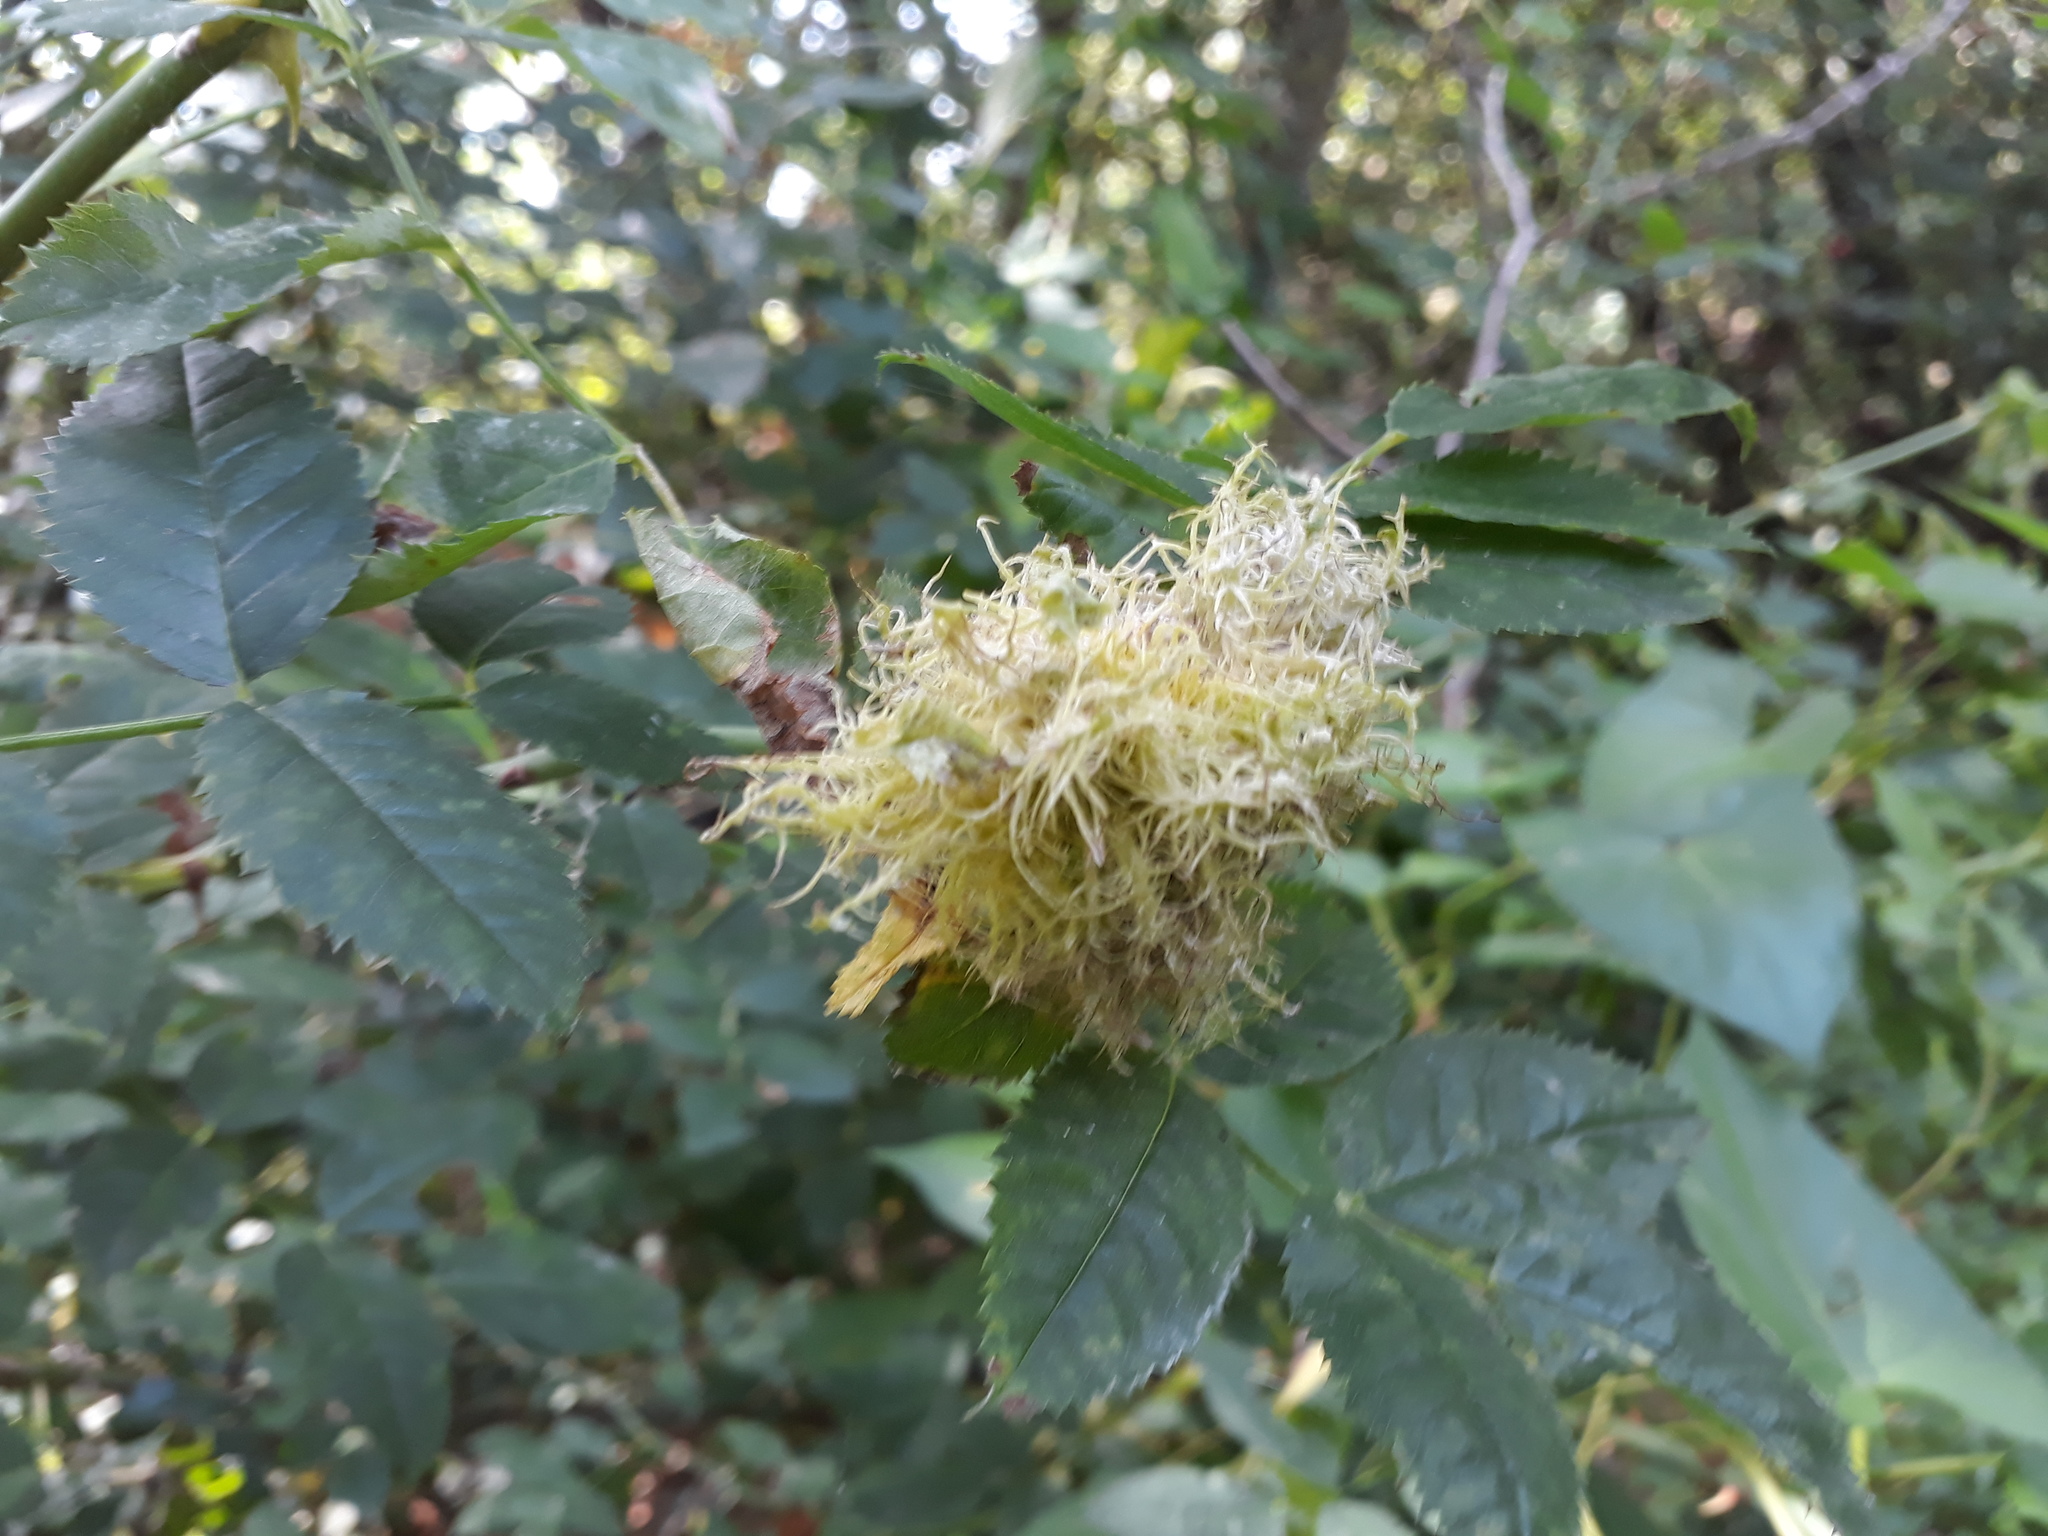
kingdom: Animalia
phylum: Arthropoda
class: Insecta
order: Hymenoptera
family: Cynipidae
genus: Diplolepis
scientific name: Diplolepis rosae
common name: Bedeguar gall
